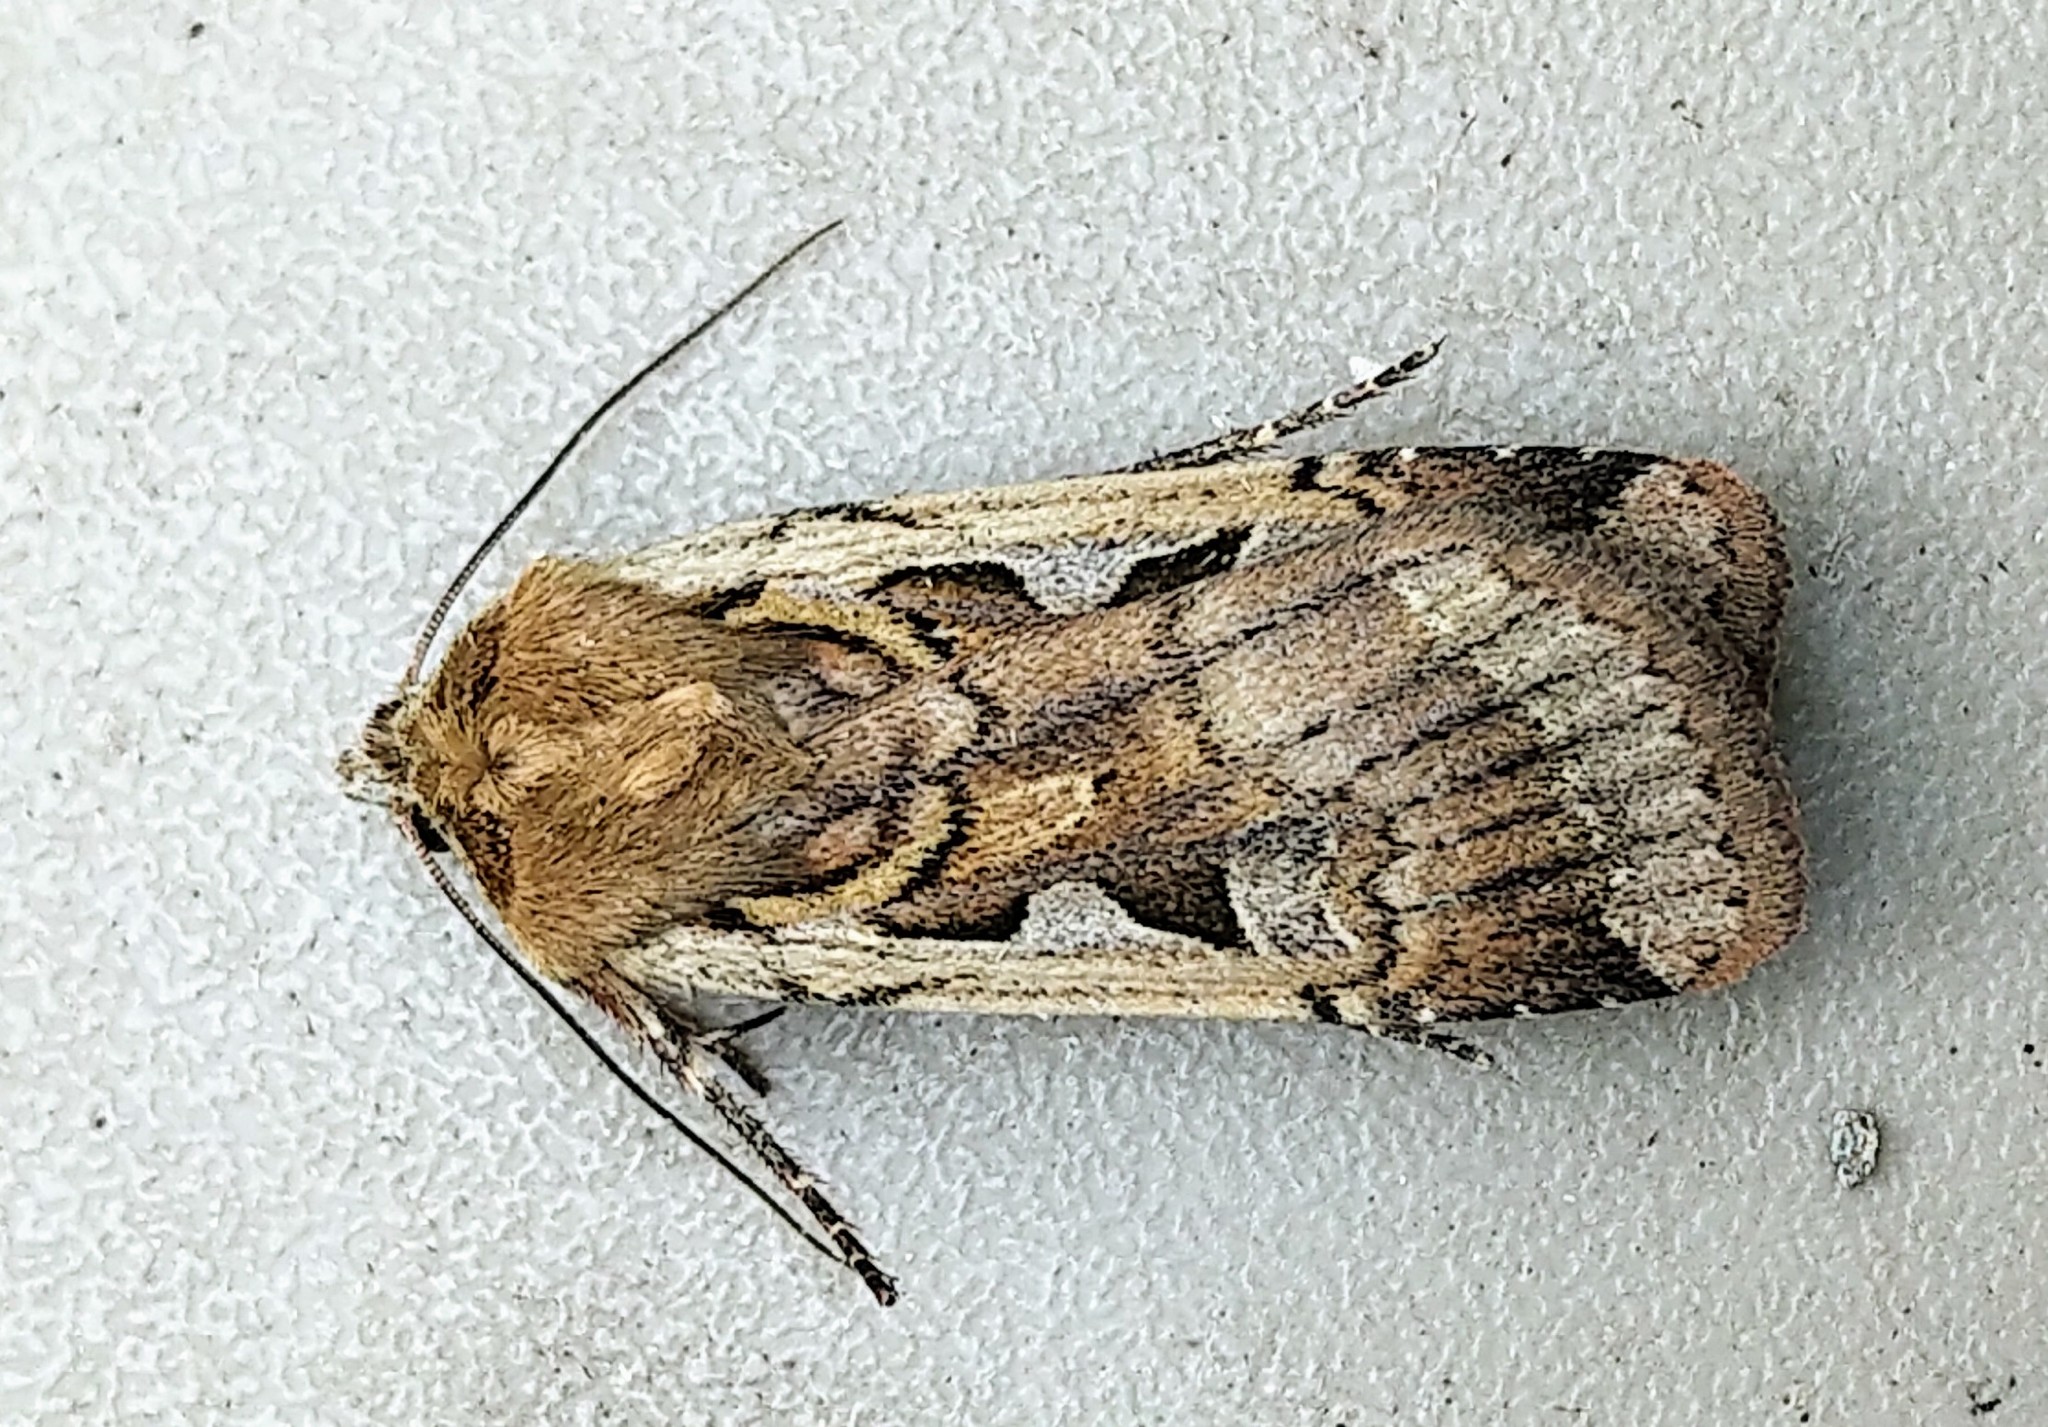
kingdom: Animalia
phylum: Arthropoda
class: Insecta
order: Lepidoptera
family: Noctuidae
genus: Parabagrotis
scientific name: Parabagrotis sulinaris
